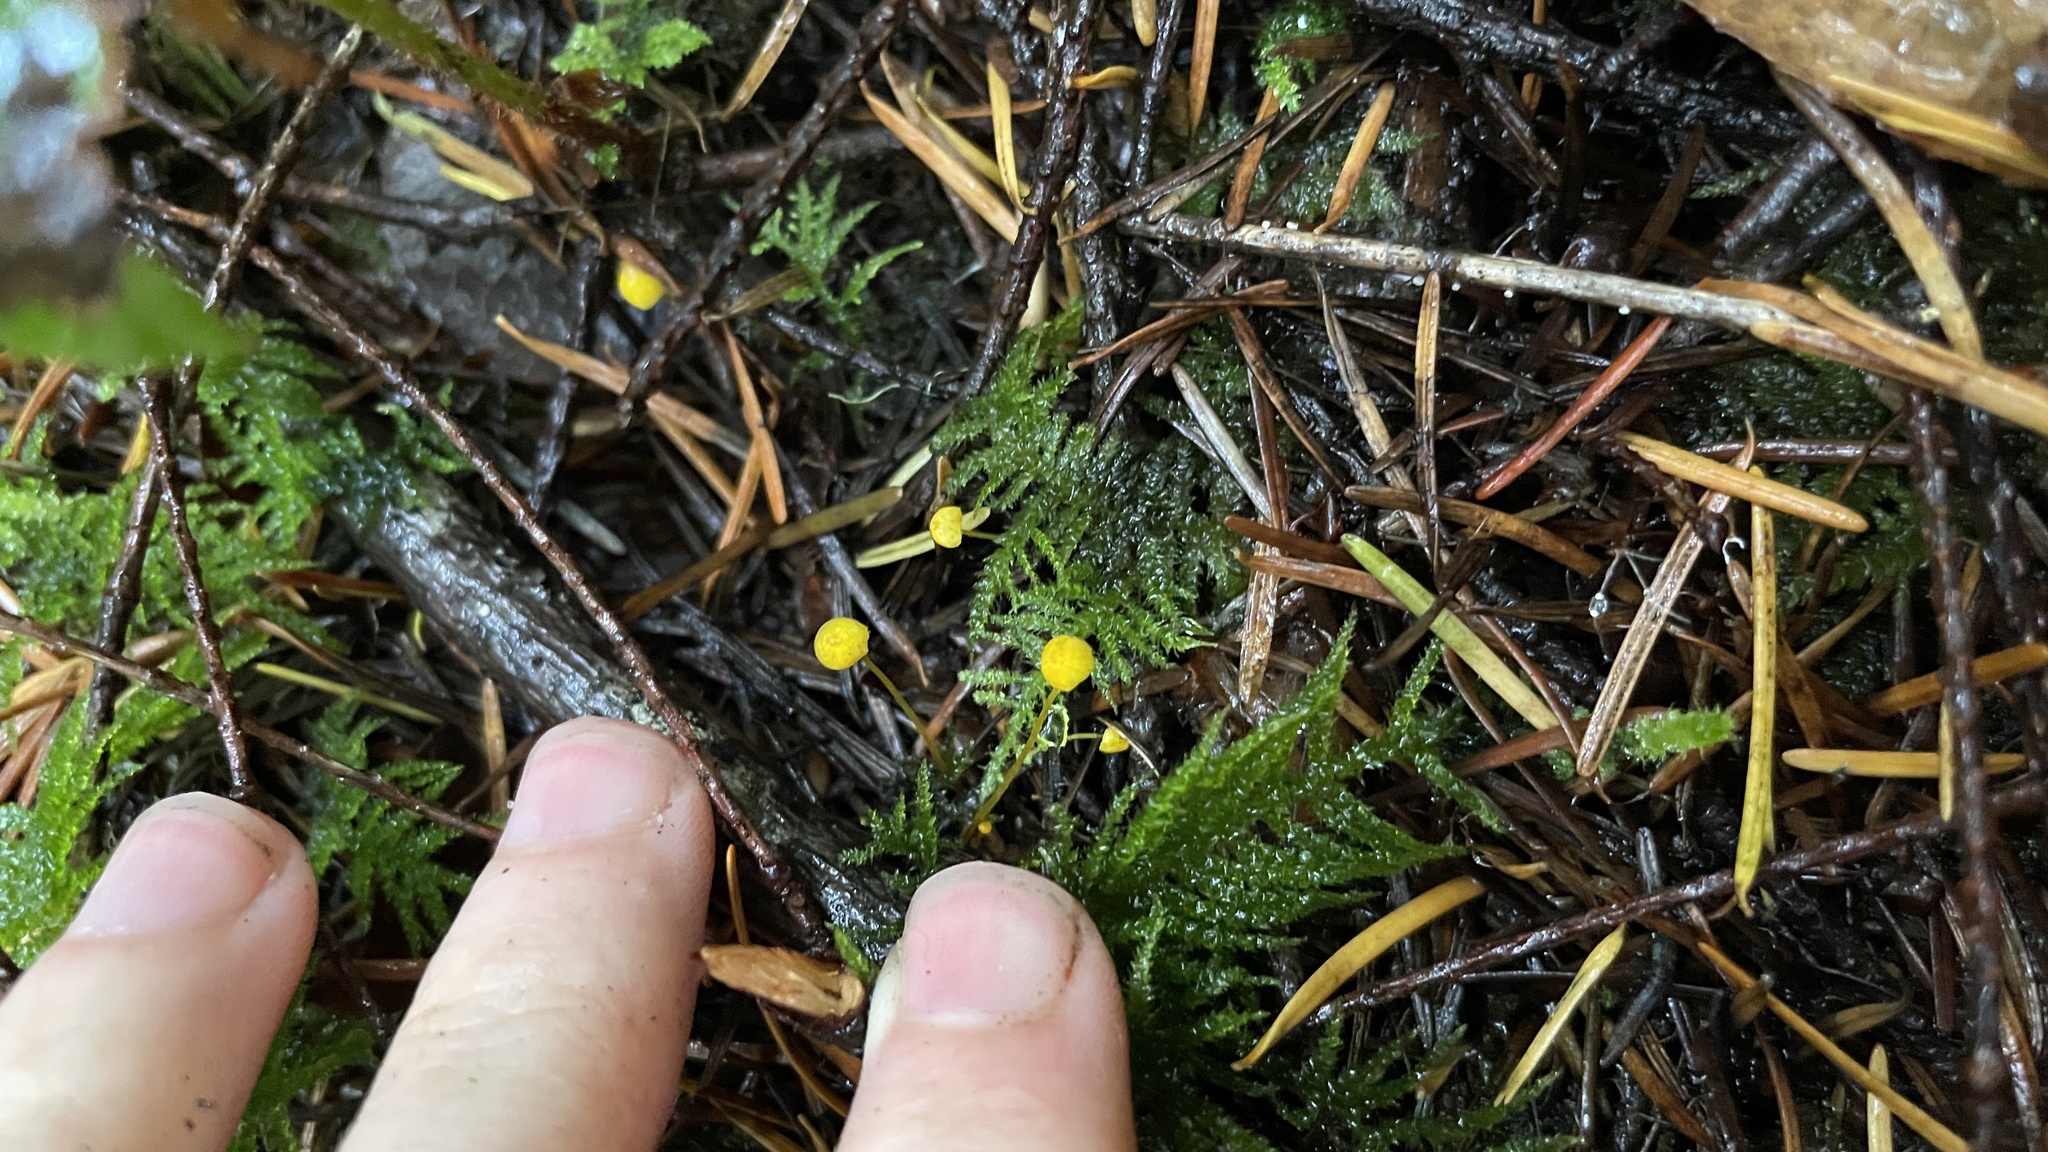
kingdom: Fungi
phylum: Basidiomycota
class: Agaricomycetes
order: Agaricales
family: Mycenaceae
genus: Mycena
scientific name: Mycena oregonensis
